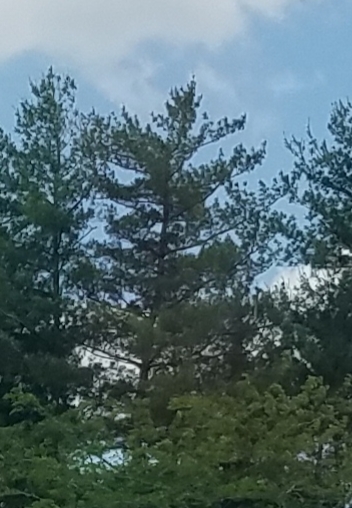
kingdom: Plantae
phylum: Tracheophyta
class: Pinopsida
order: Pinales
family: Pinaceae
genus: Pinus
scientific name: Pinus strobus
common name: Weymouth pine
